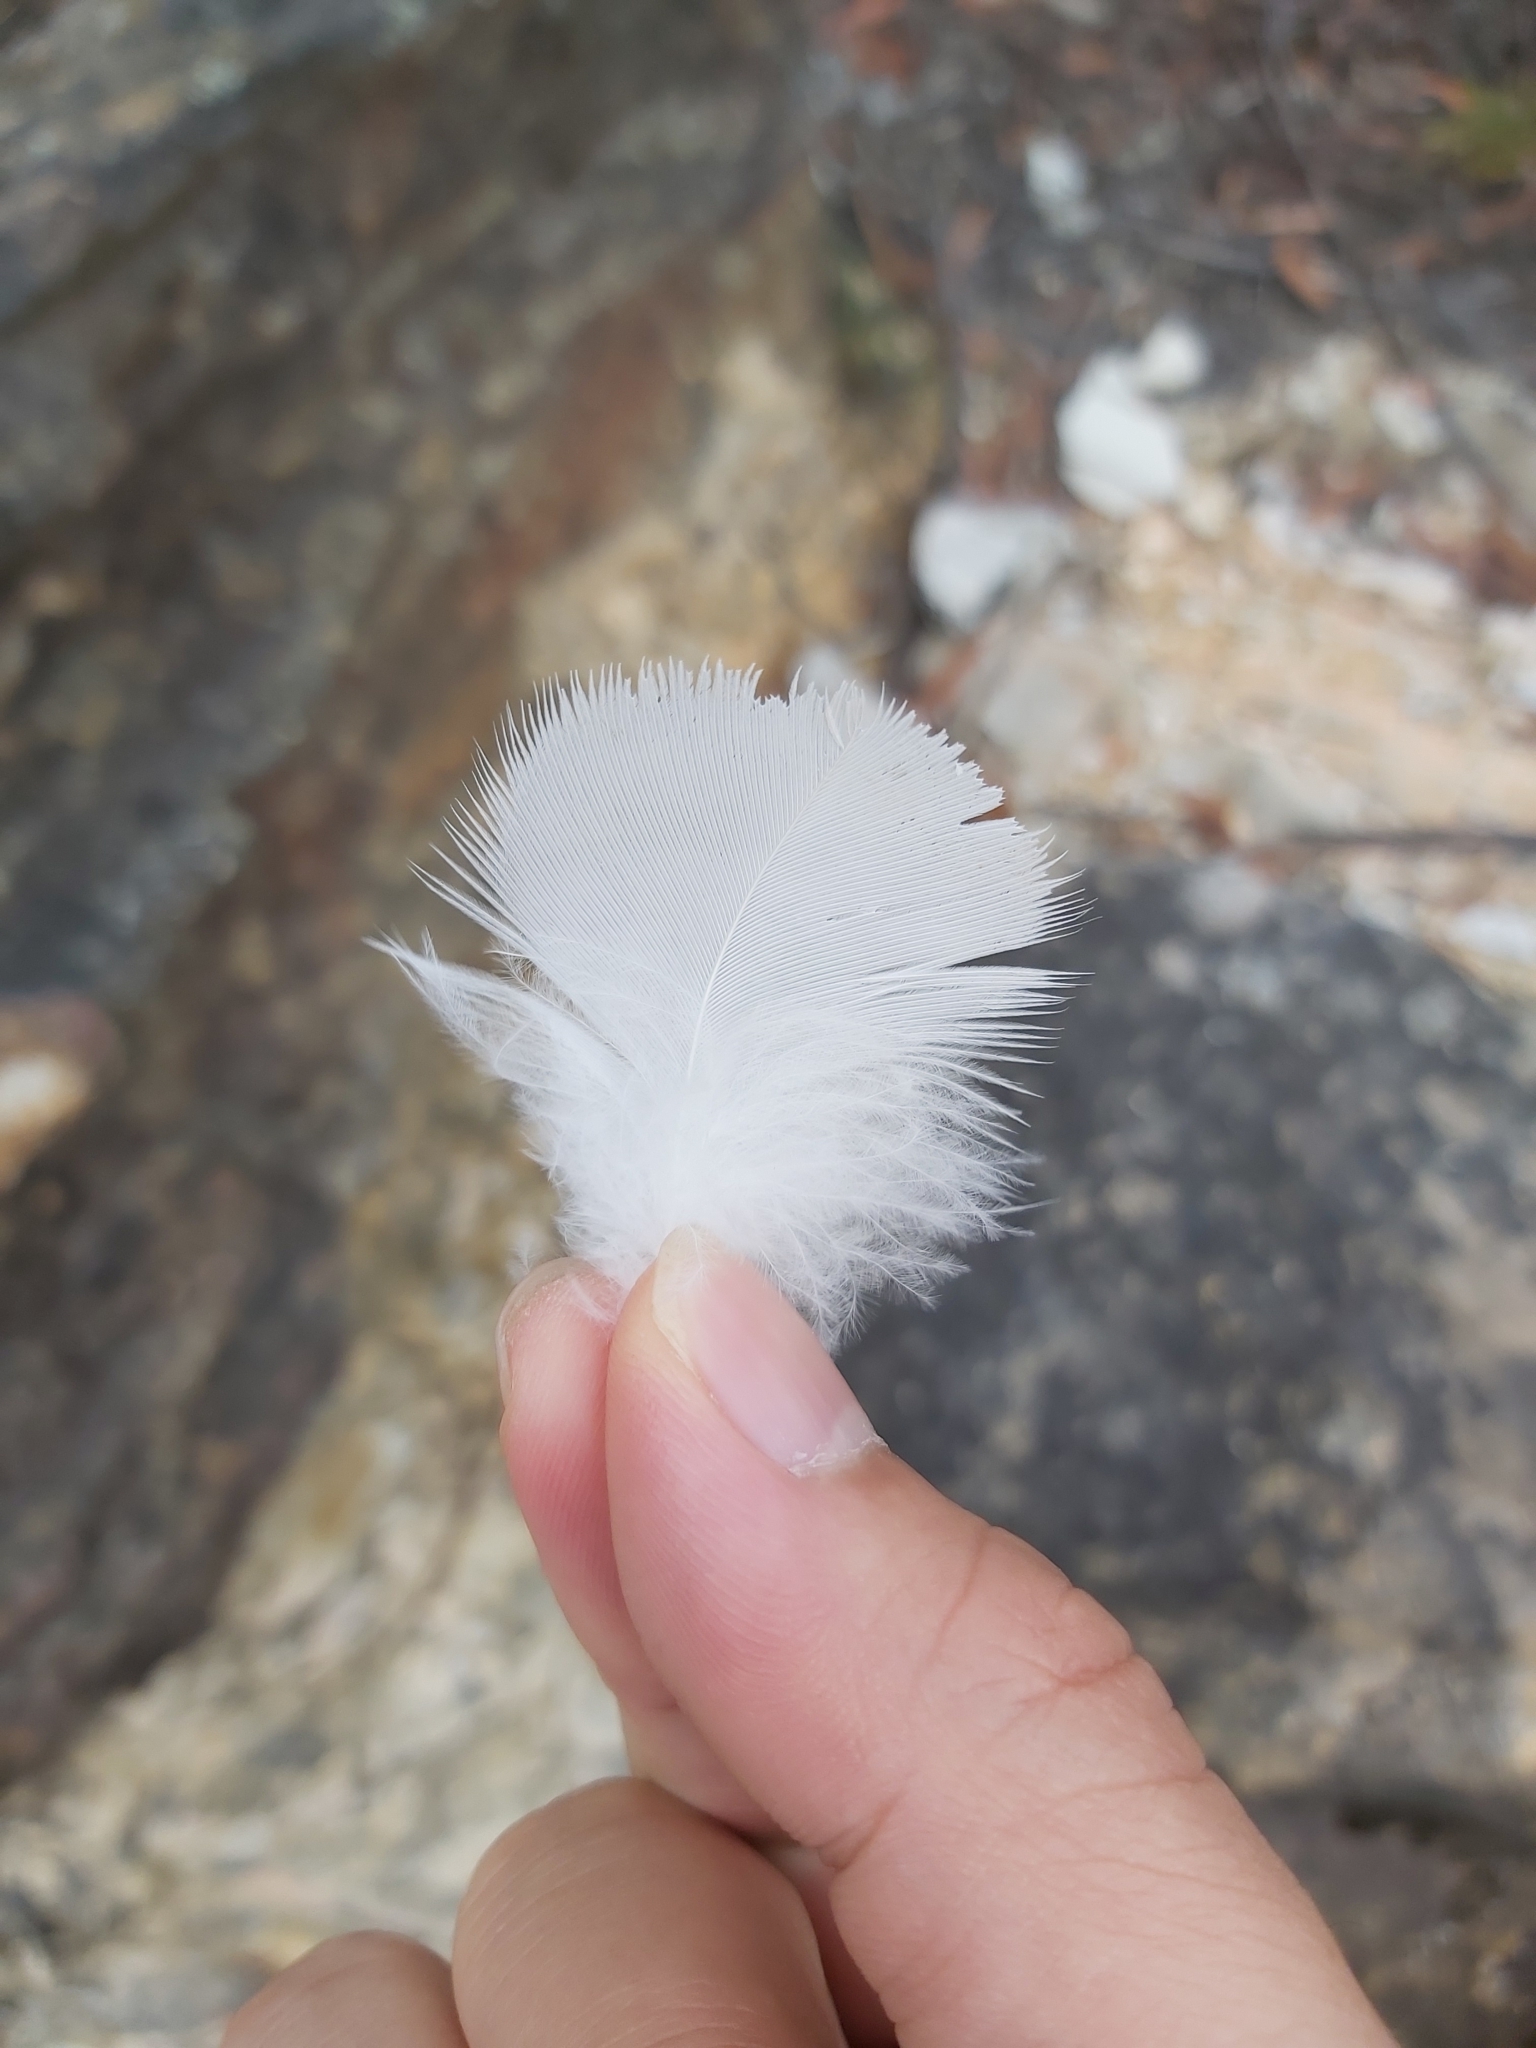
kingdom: Animalia
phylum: Chordata
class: Aves
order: Psittaciformes
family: Psittacidae
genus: Cacatua
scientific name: Cacatua galerita
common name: Sulphur-crested cockatoo
